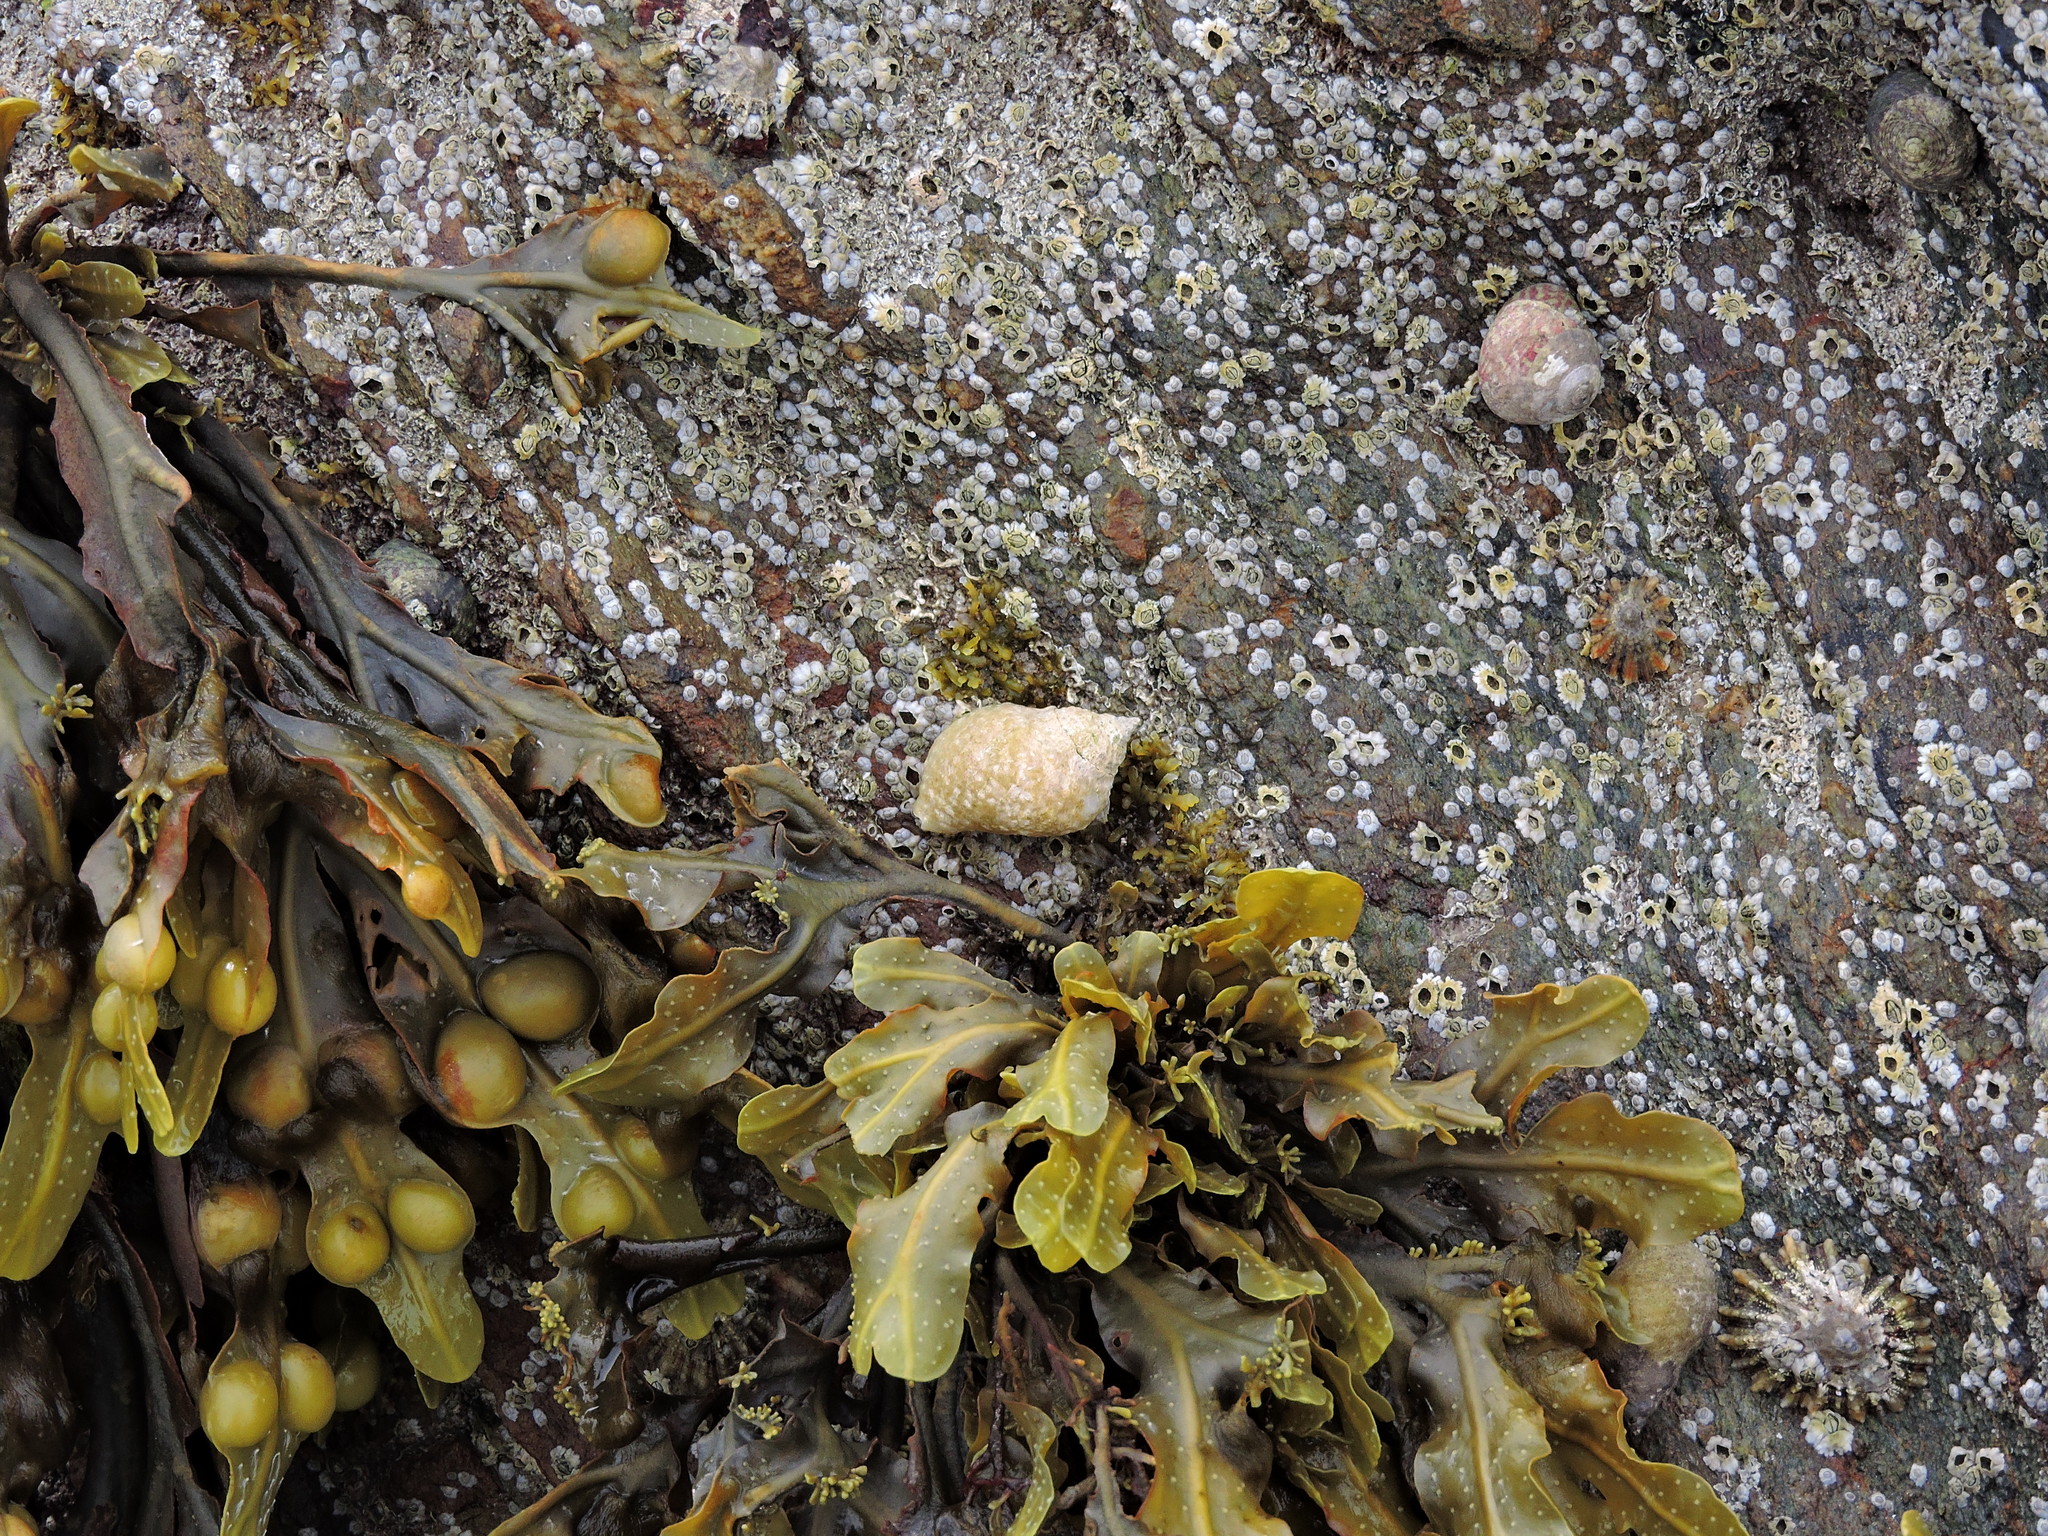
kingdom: Chromista
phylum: Ochrophyta
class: Phaeophyceae
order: Fucales
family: Fucaceae
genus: Fucus
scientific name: Fucus vesiculosus
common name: Bladder wrack
